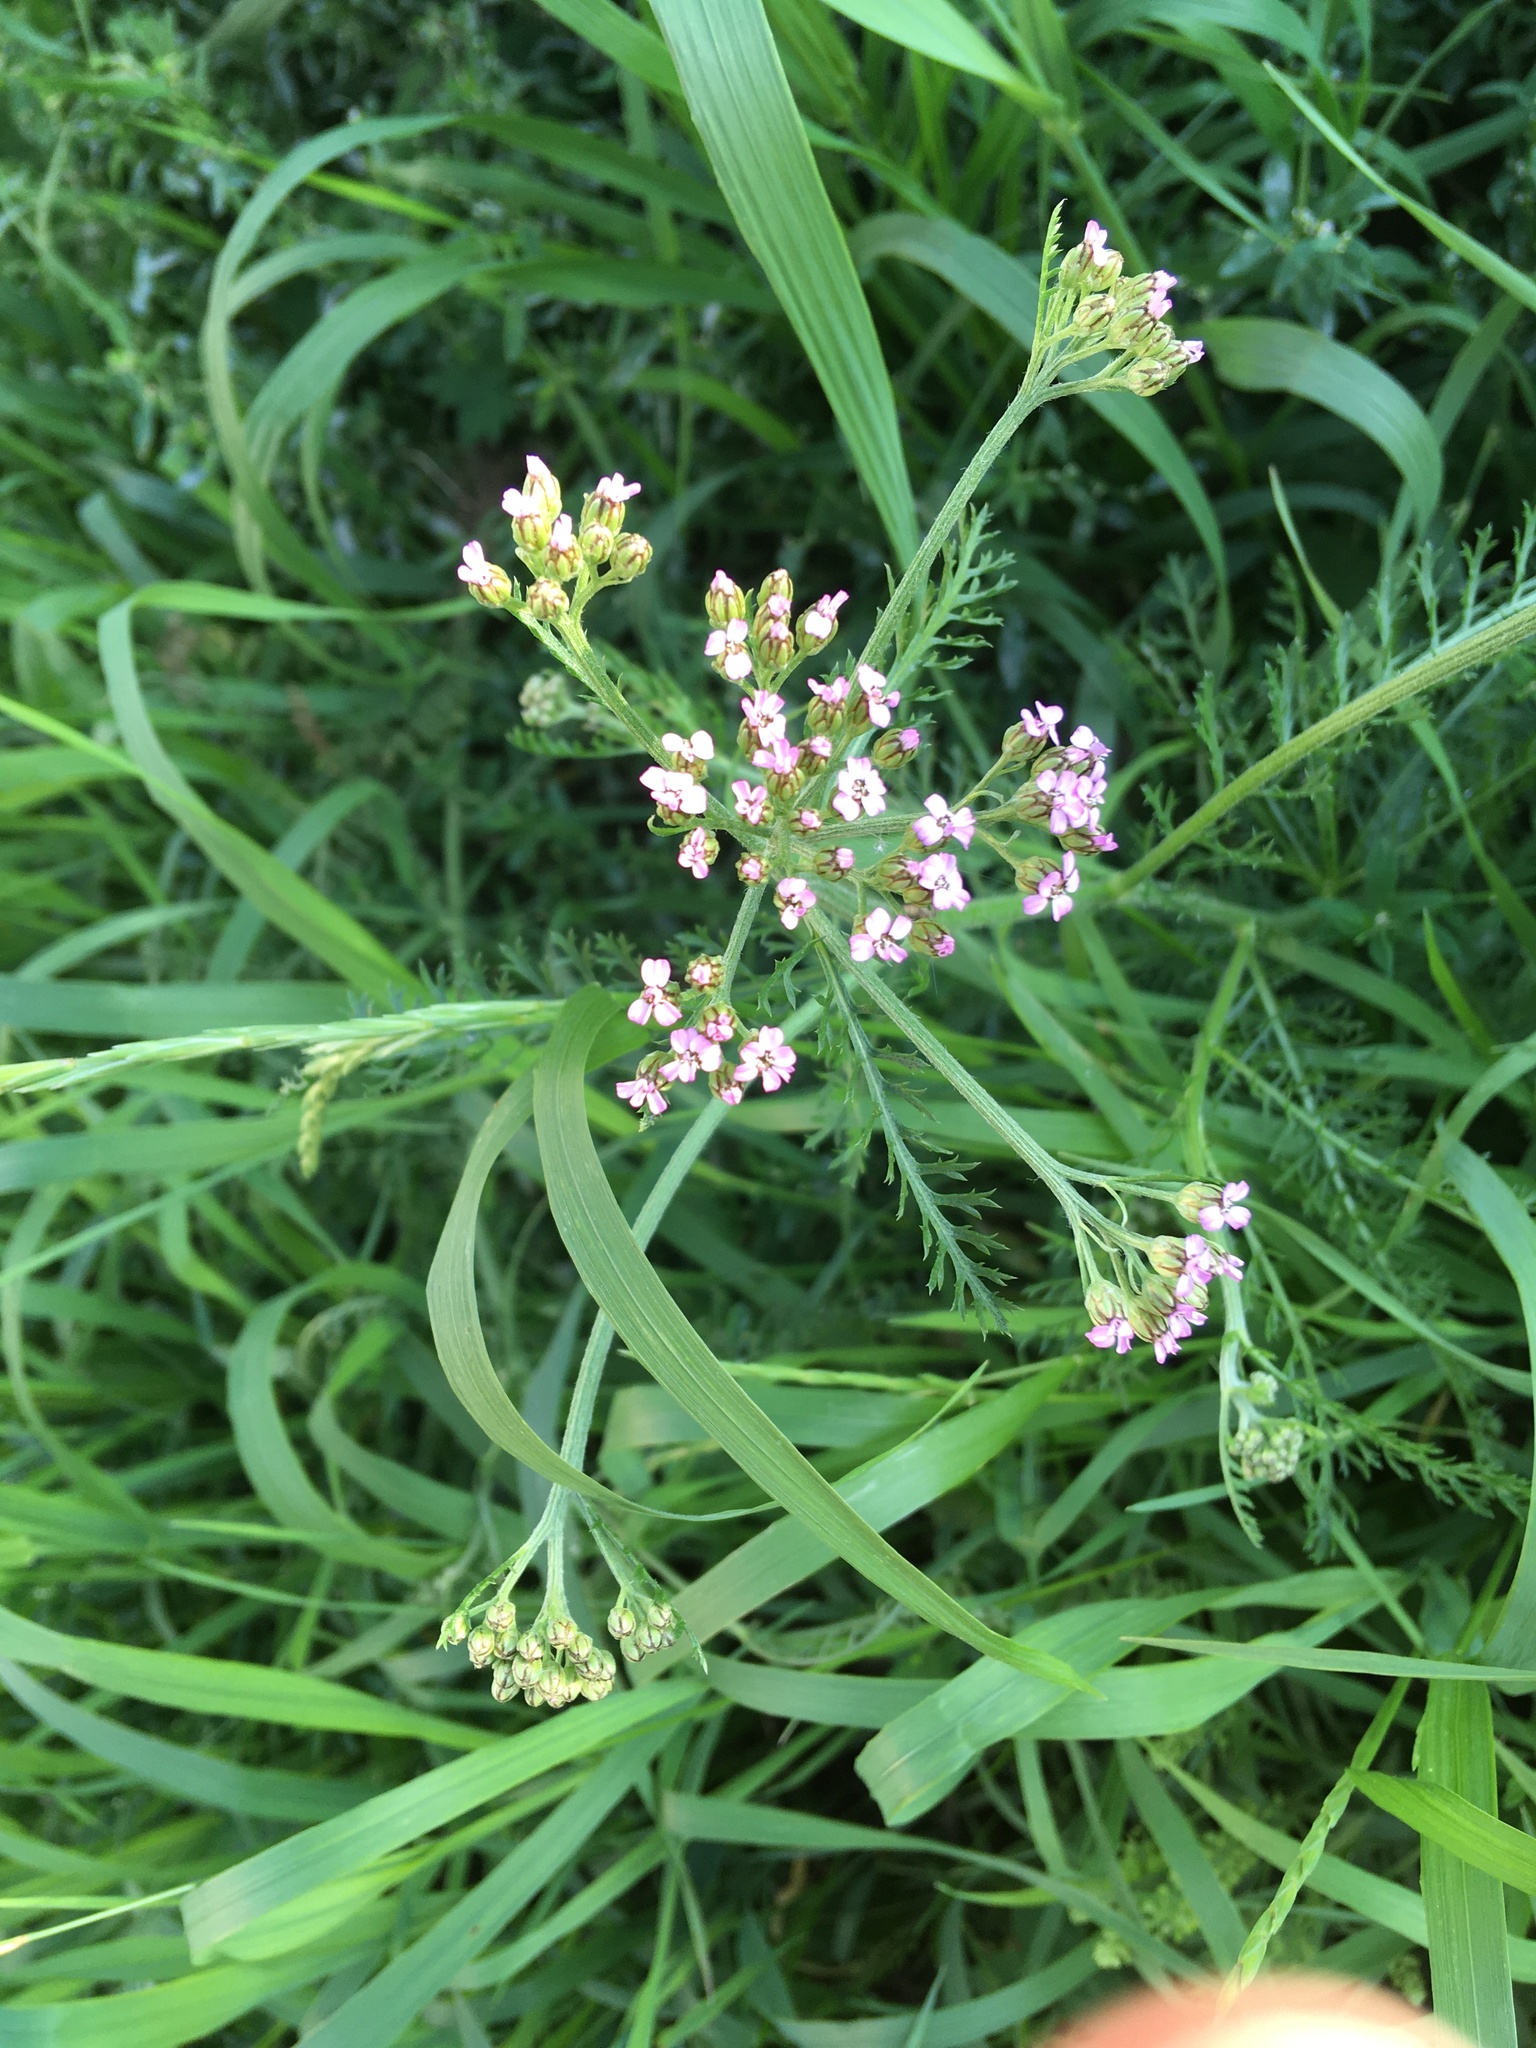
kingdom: Plantae
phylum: Tracheophyta
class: Magnoliopsida
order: Asterales
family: Asteraceae
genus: Achillea
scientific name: Achillea millefolium
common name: Yarrow
